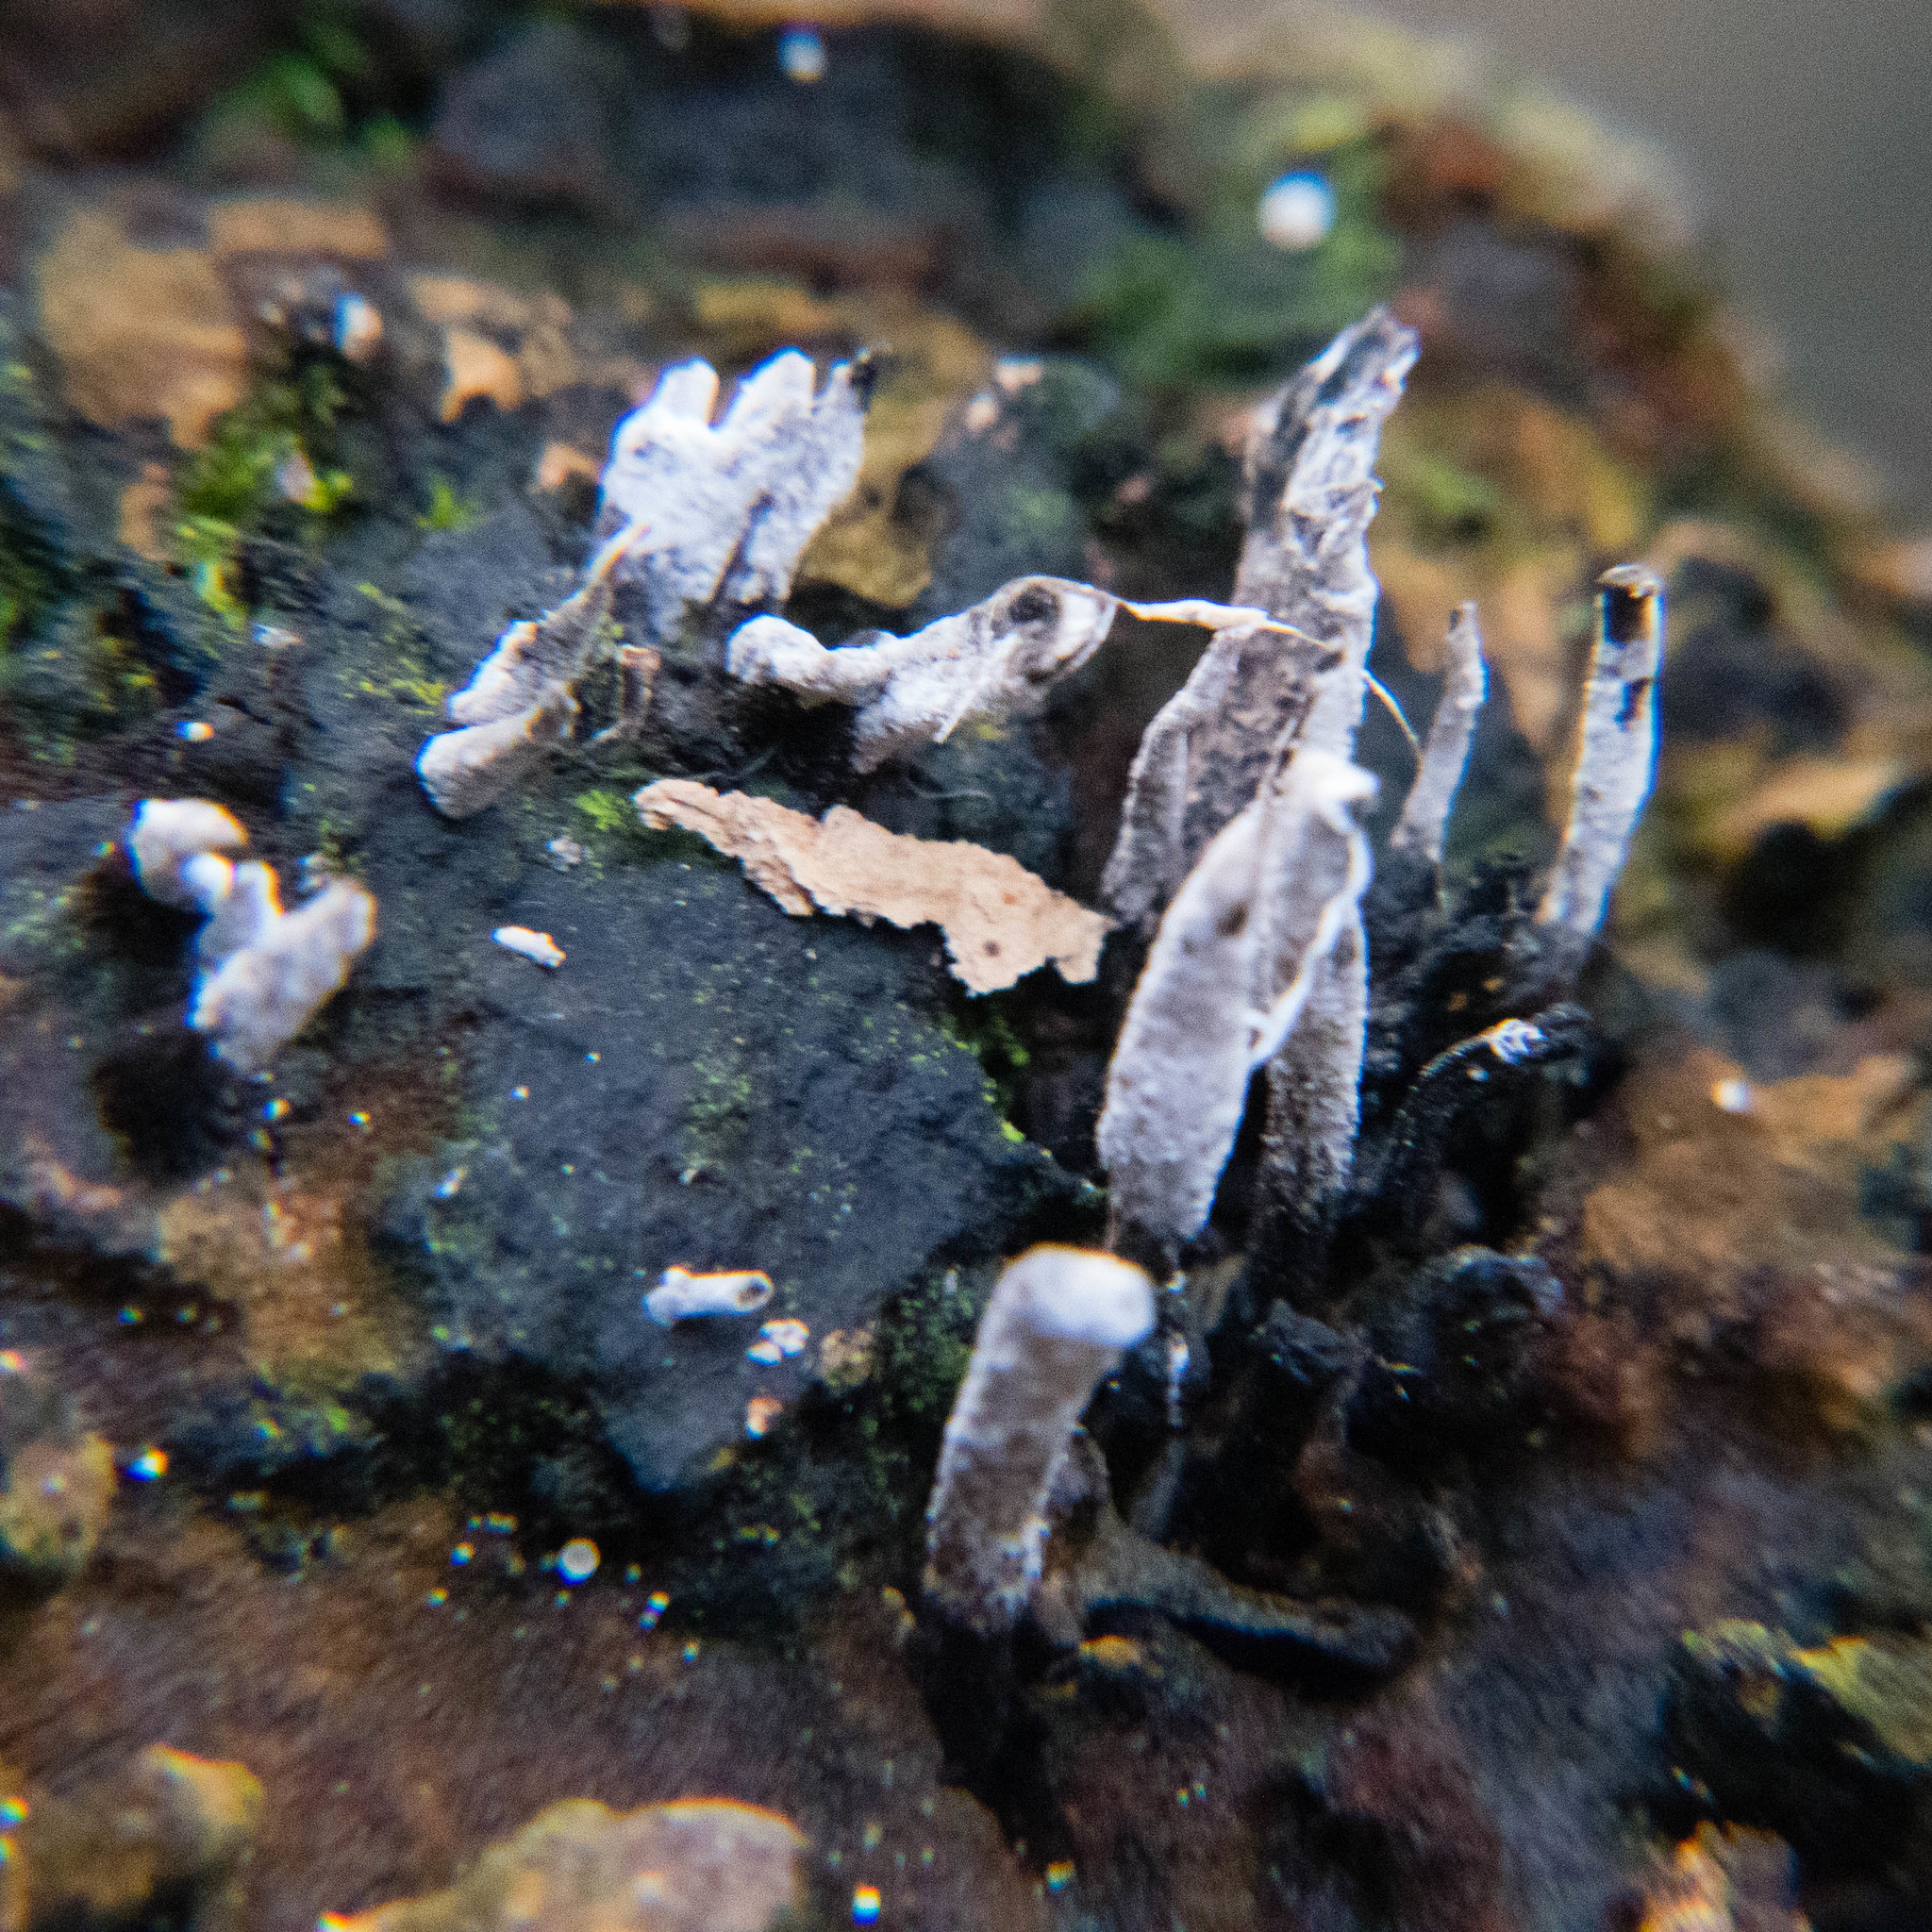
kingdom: Fungi
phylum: Ascomycota
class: Sordariomycetes
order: Xylariales
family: Xylariaceae
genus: Xylaria
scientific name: Xylaria hypoxylon
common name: Candle-snuff fungus
